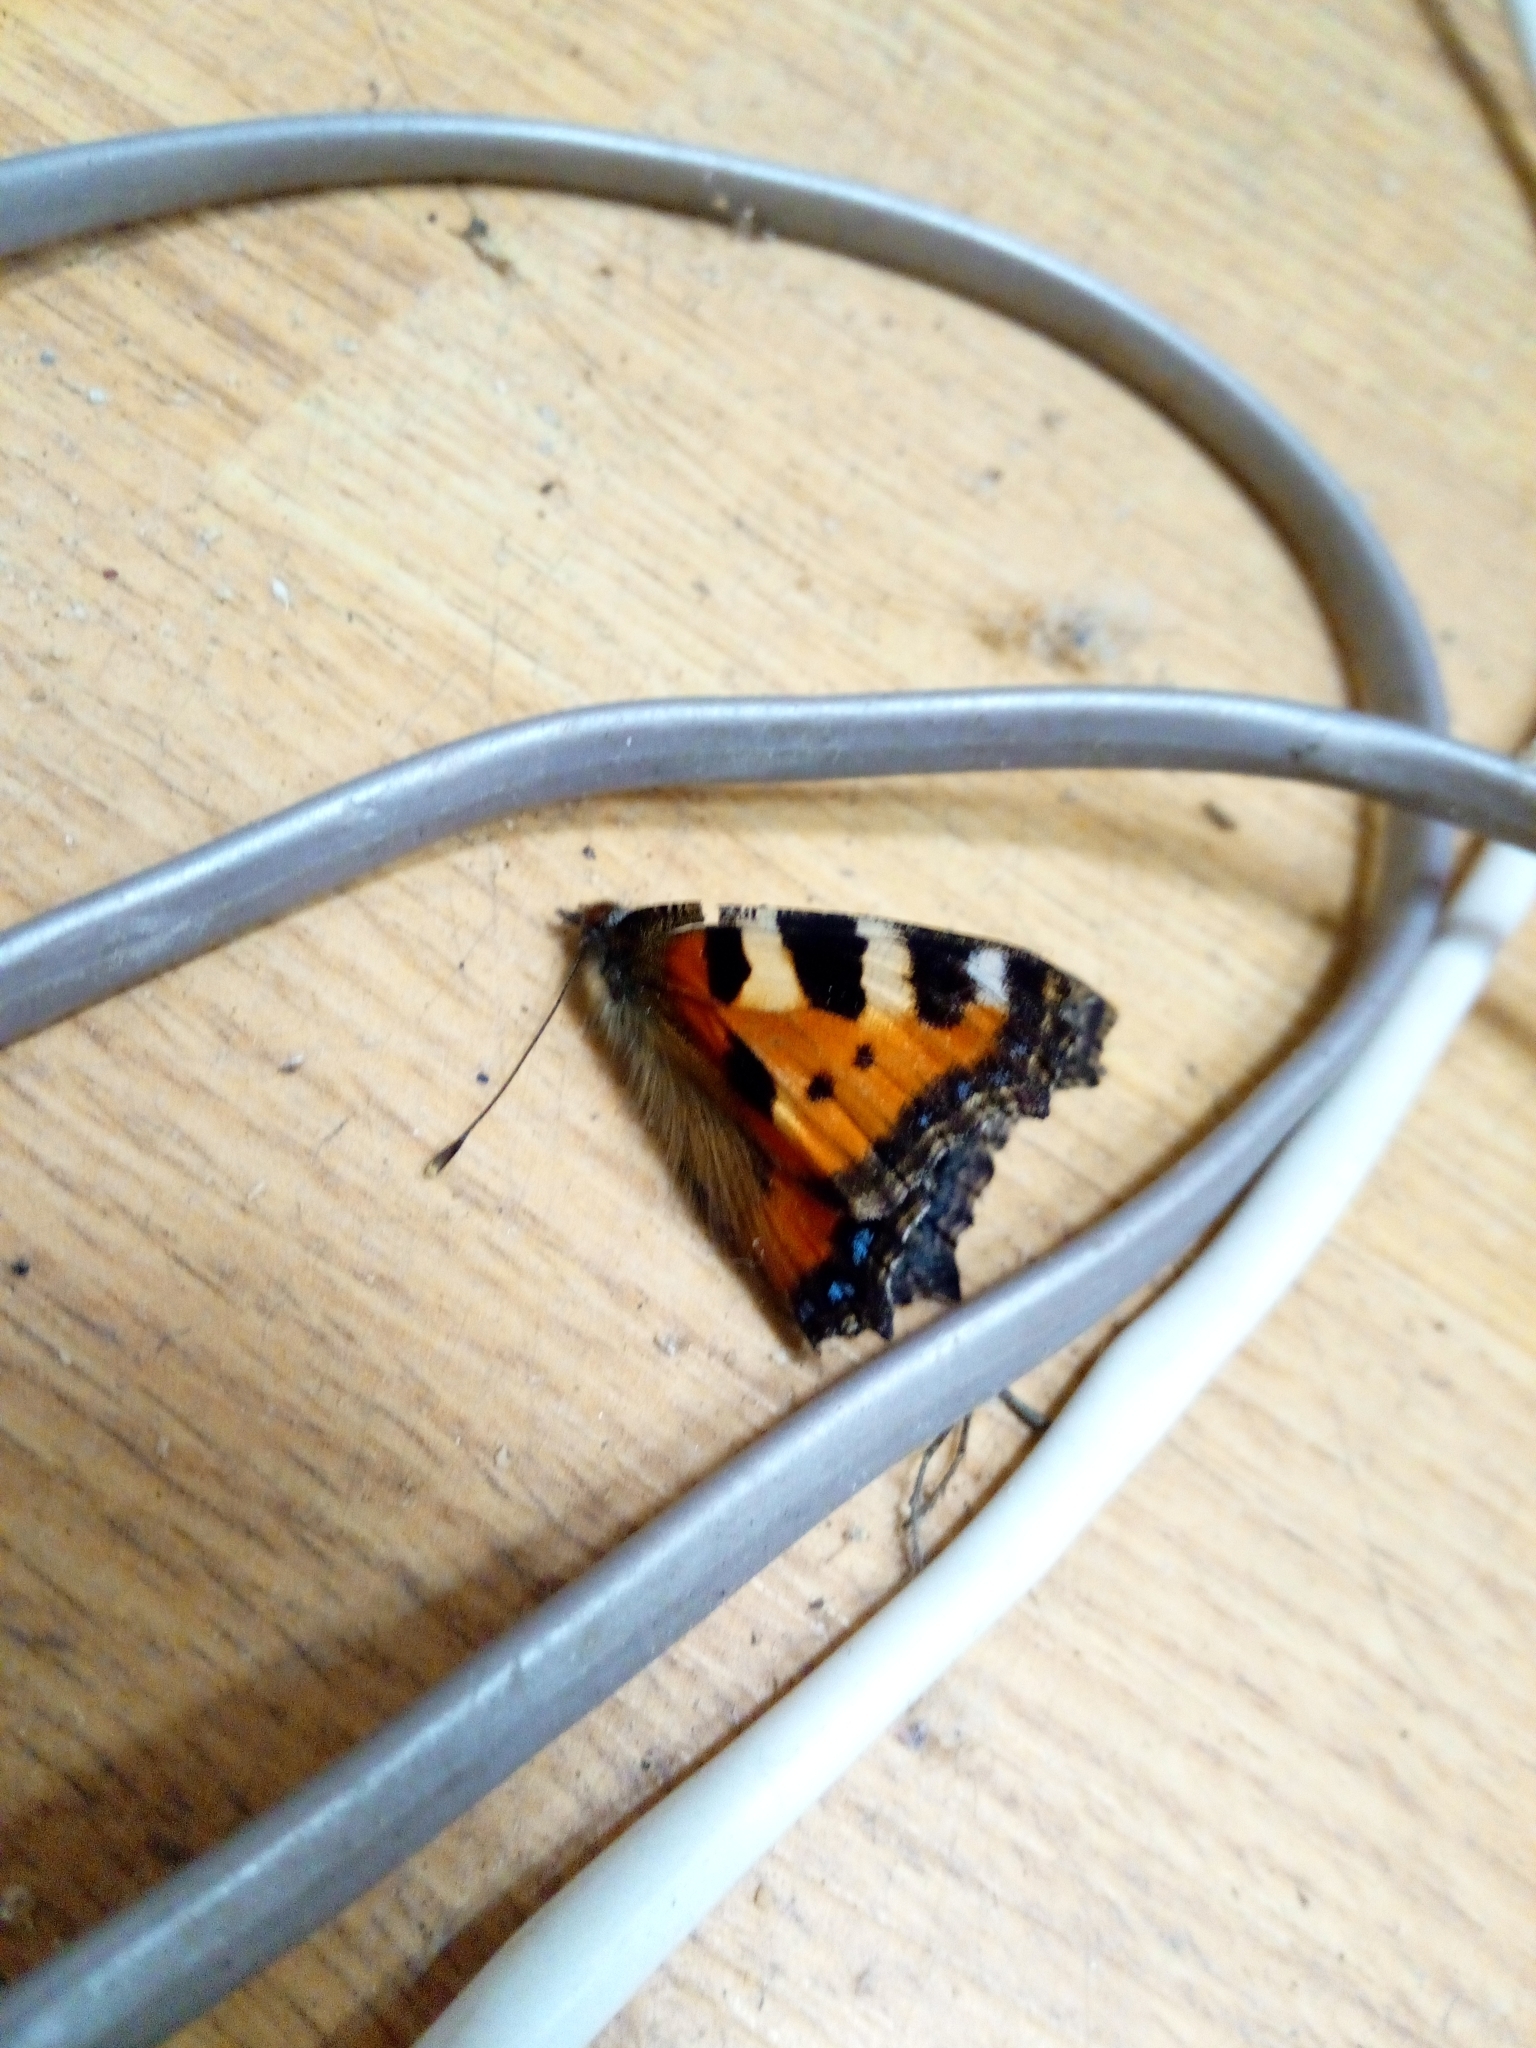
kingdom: Animalia
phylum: Arthropoda
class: Insecta
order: Lepidoptera
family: Nymphalidae
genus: Aglais
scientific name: Aglais urticae
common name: Small tortoiseshell
